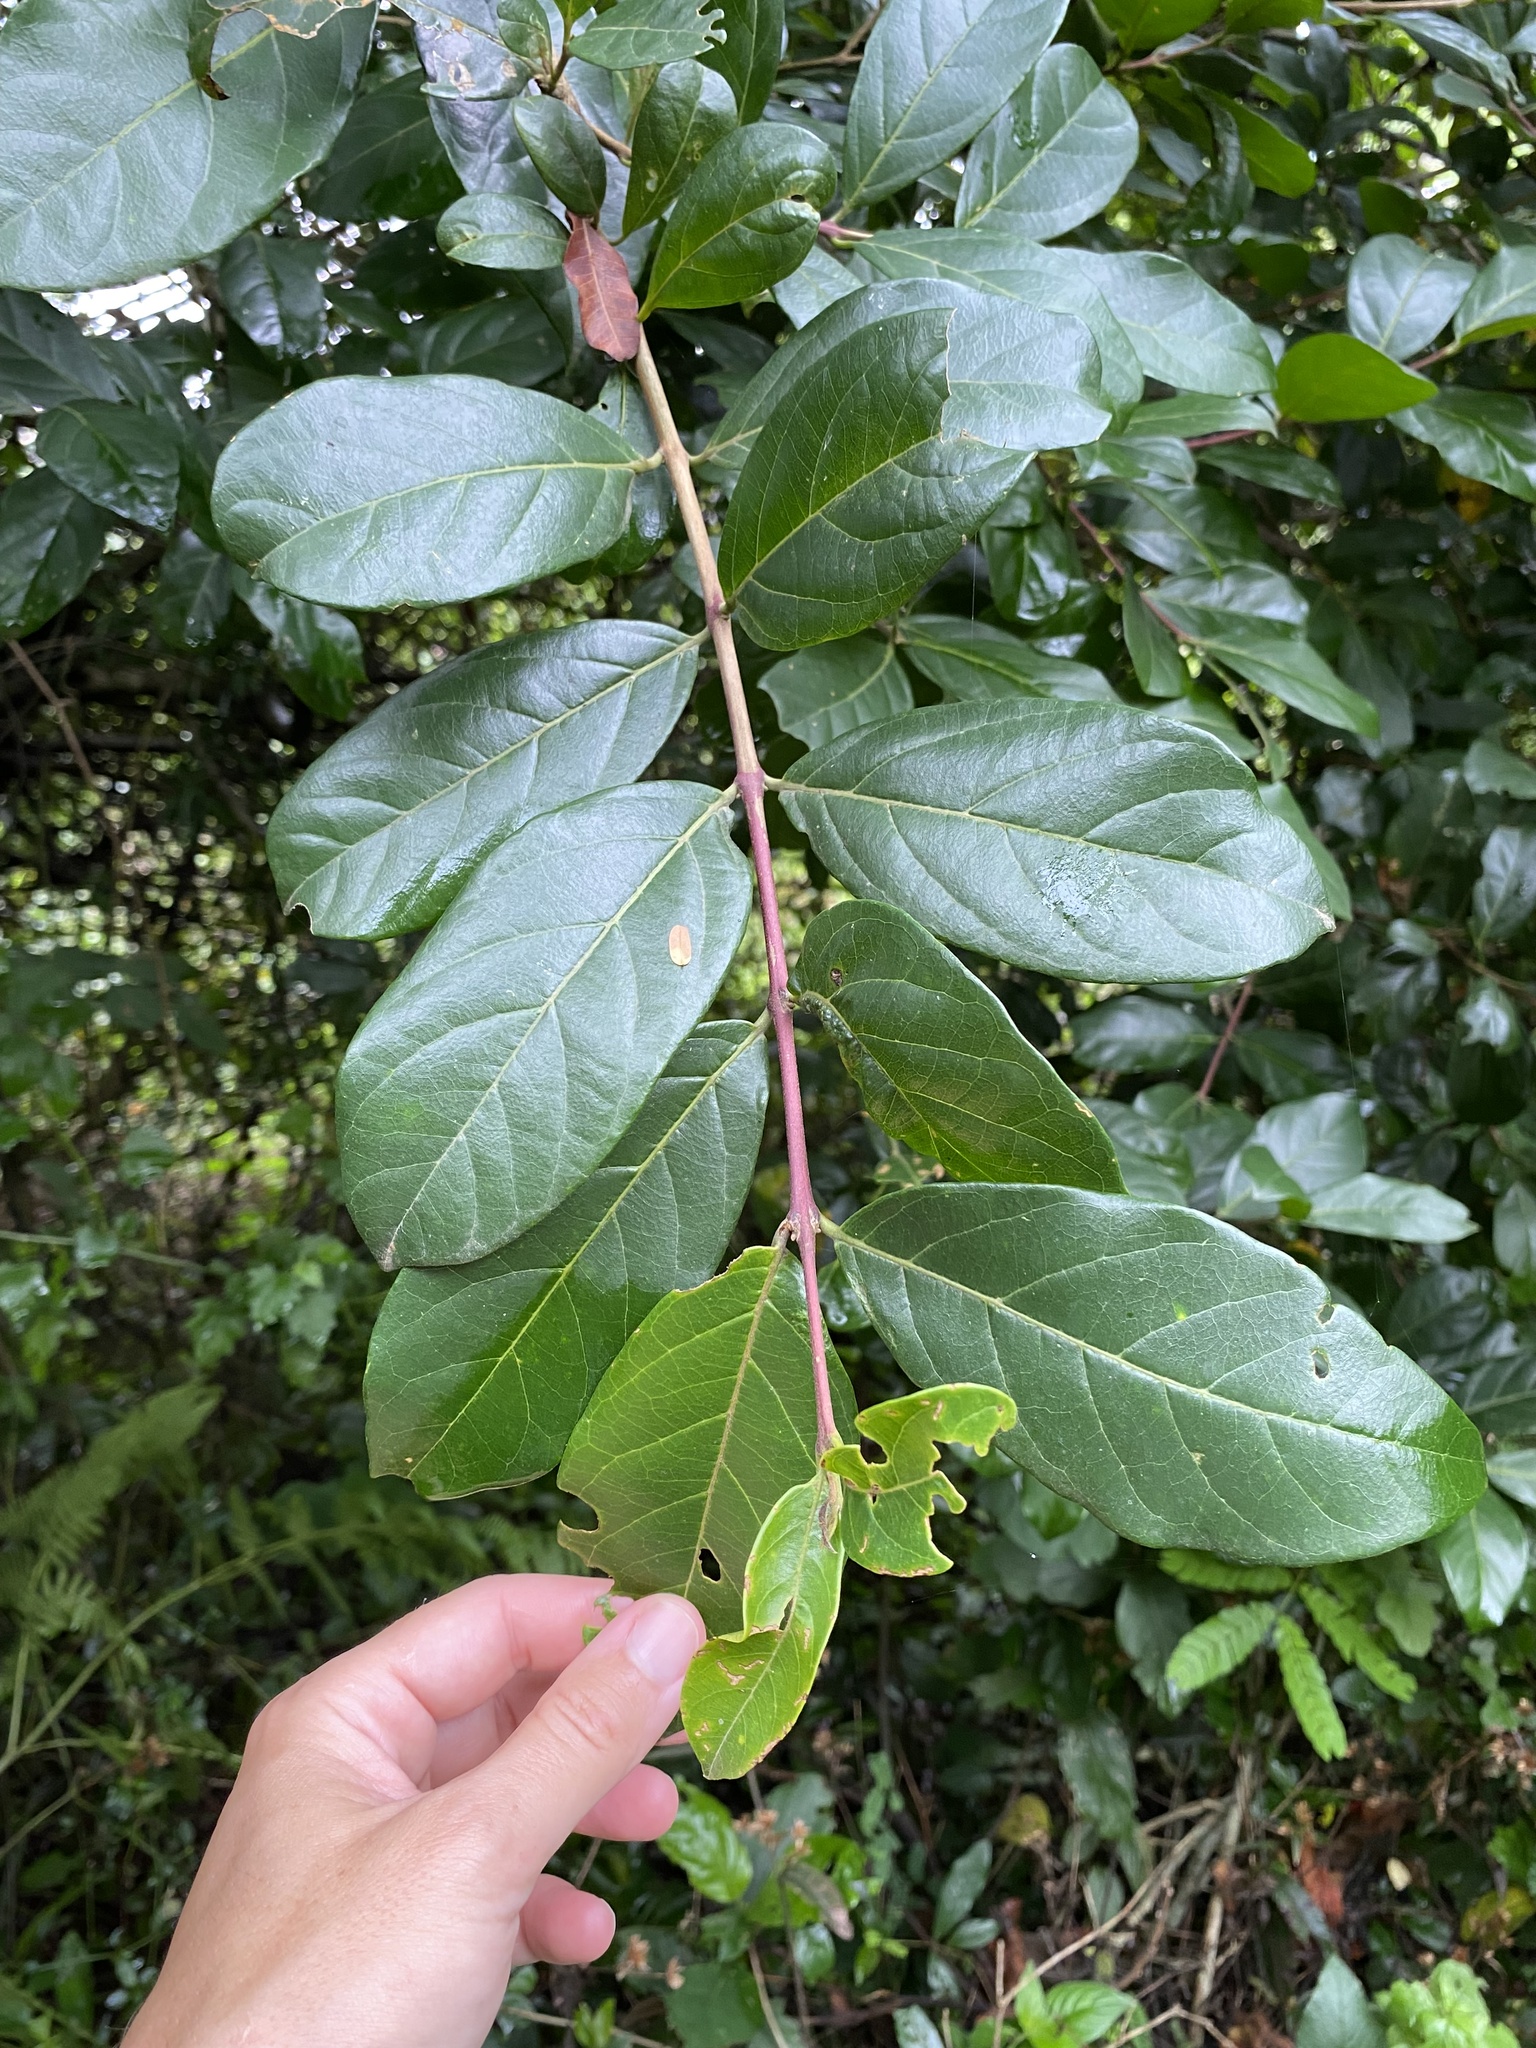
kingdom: Plantae
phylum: Tracheophyta
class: Magnoliopsida
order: Malpighiales
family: Phyllanthaceae
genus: Antidesma
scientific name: Antidesma venosum
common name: Tassel-berry
